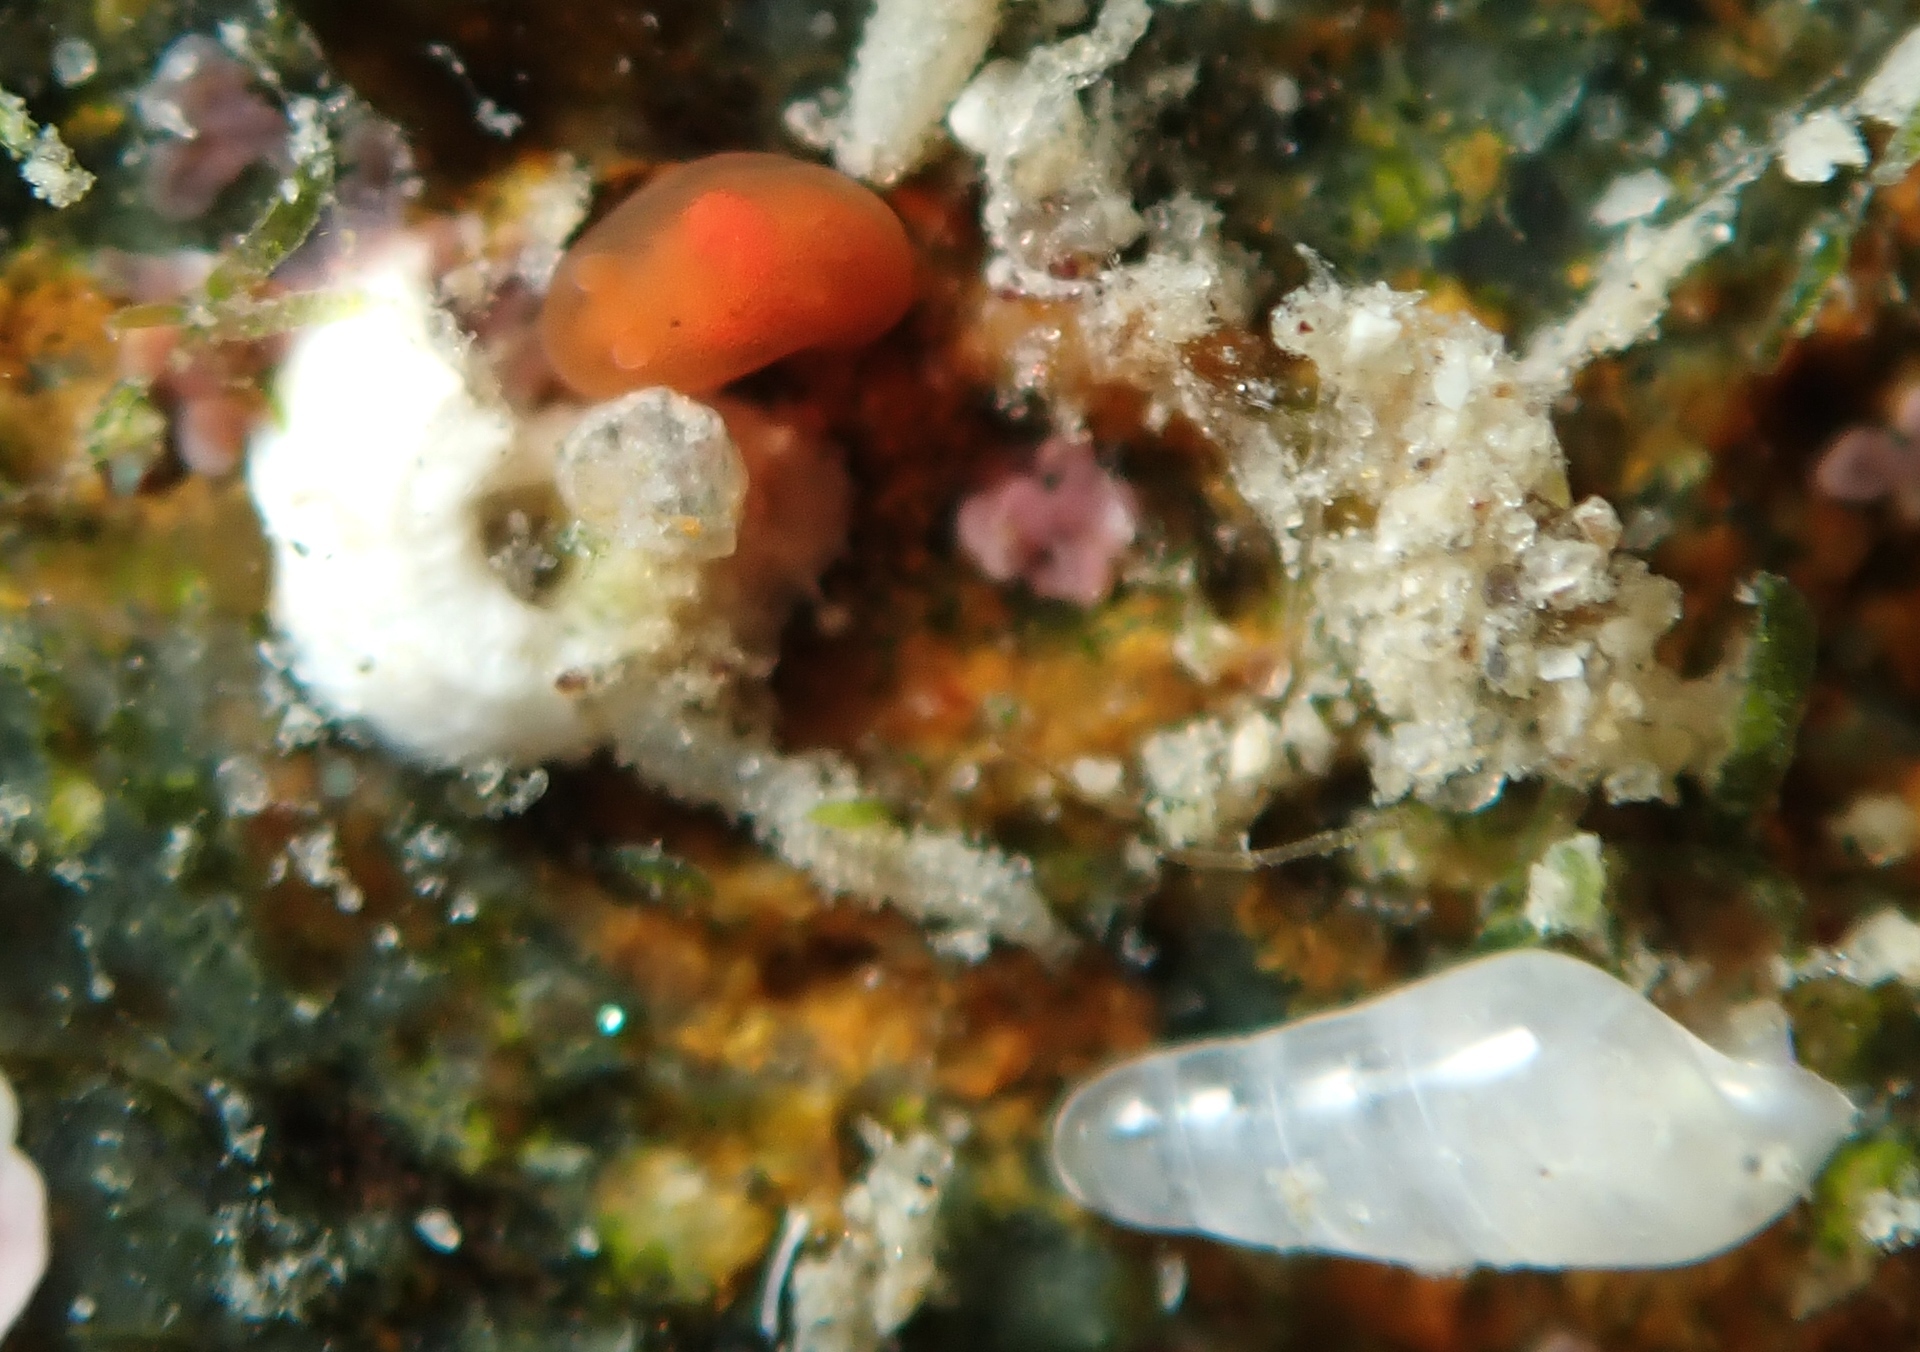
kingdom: Animalia
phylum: Mollusca
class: Gastropoda
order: Nudibranchia
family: Okadaiidae
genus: Vayssierea
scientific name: Vayssierea cinnabarea
